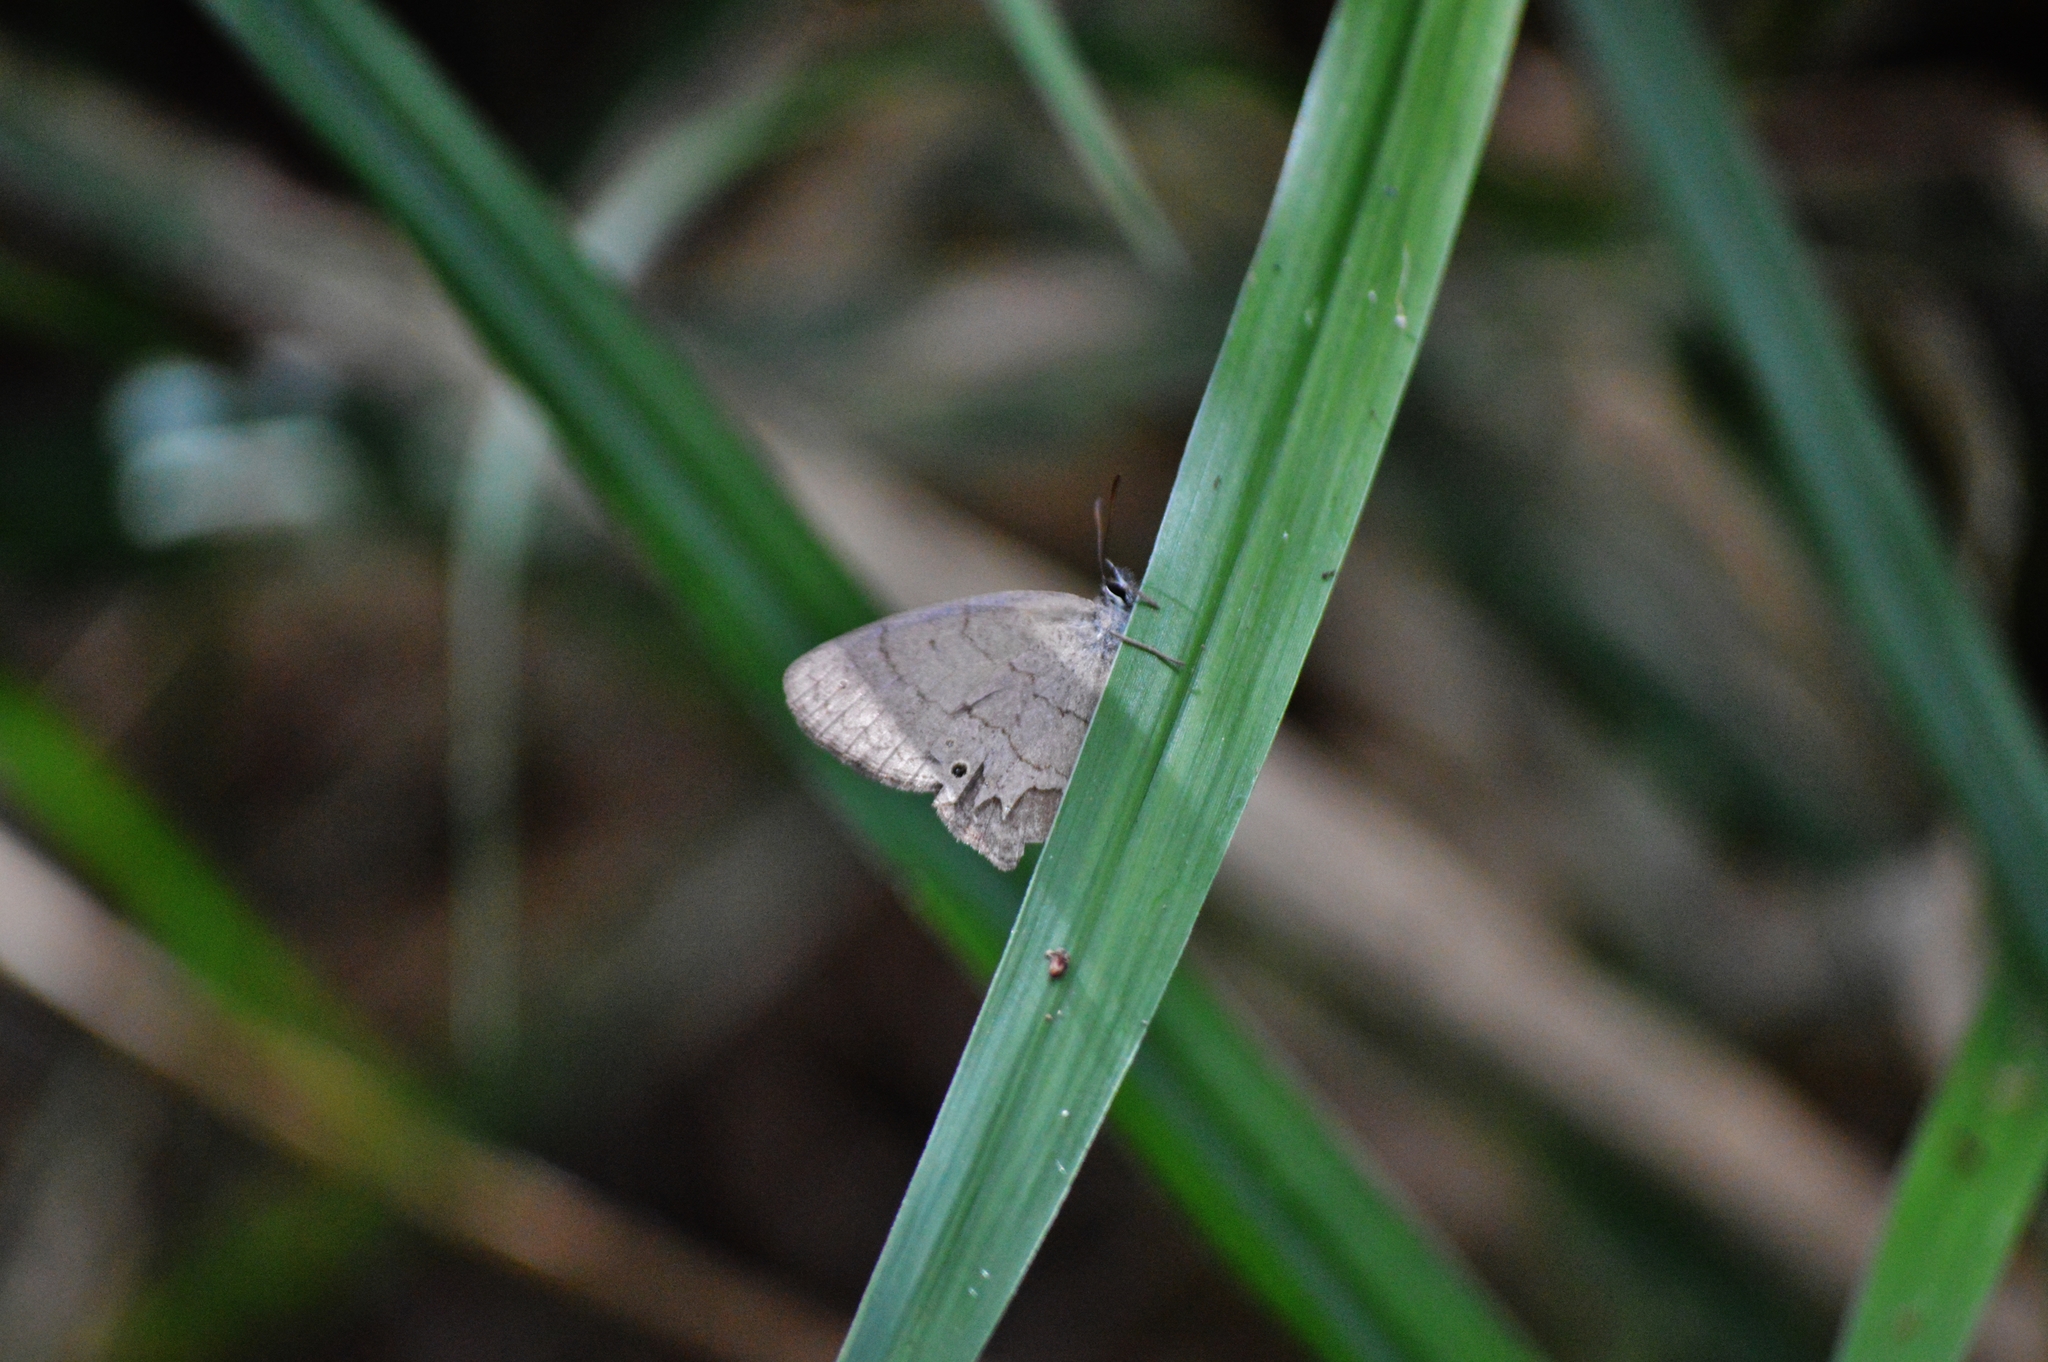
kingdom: Animalia
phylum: Arthropoda
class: Insecta
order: Lepidoptera
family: Nymphalidae
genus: Euptychiina
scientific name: Euptychiina
